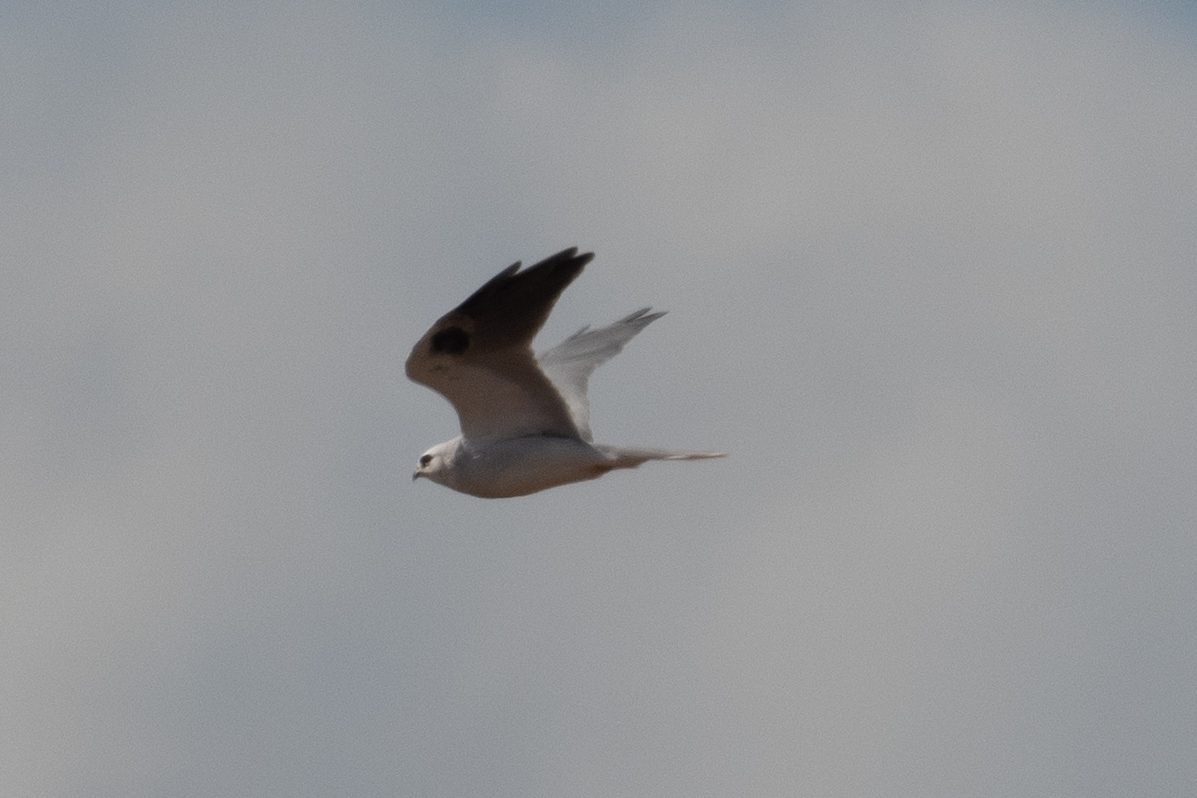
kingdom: Animalia
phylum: Chordata
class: Aves
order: Accipitriformes
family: Accipitridae
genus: Elanus
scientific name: Elanus leucurus
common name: White-tailed kite
